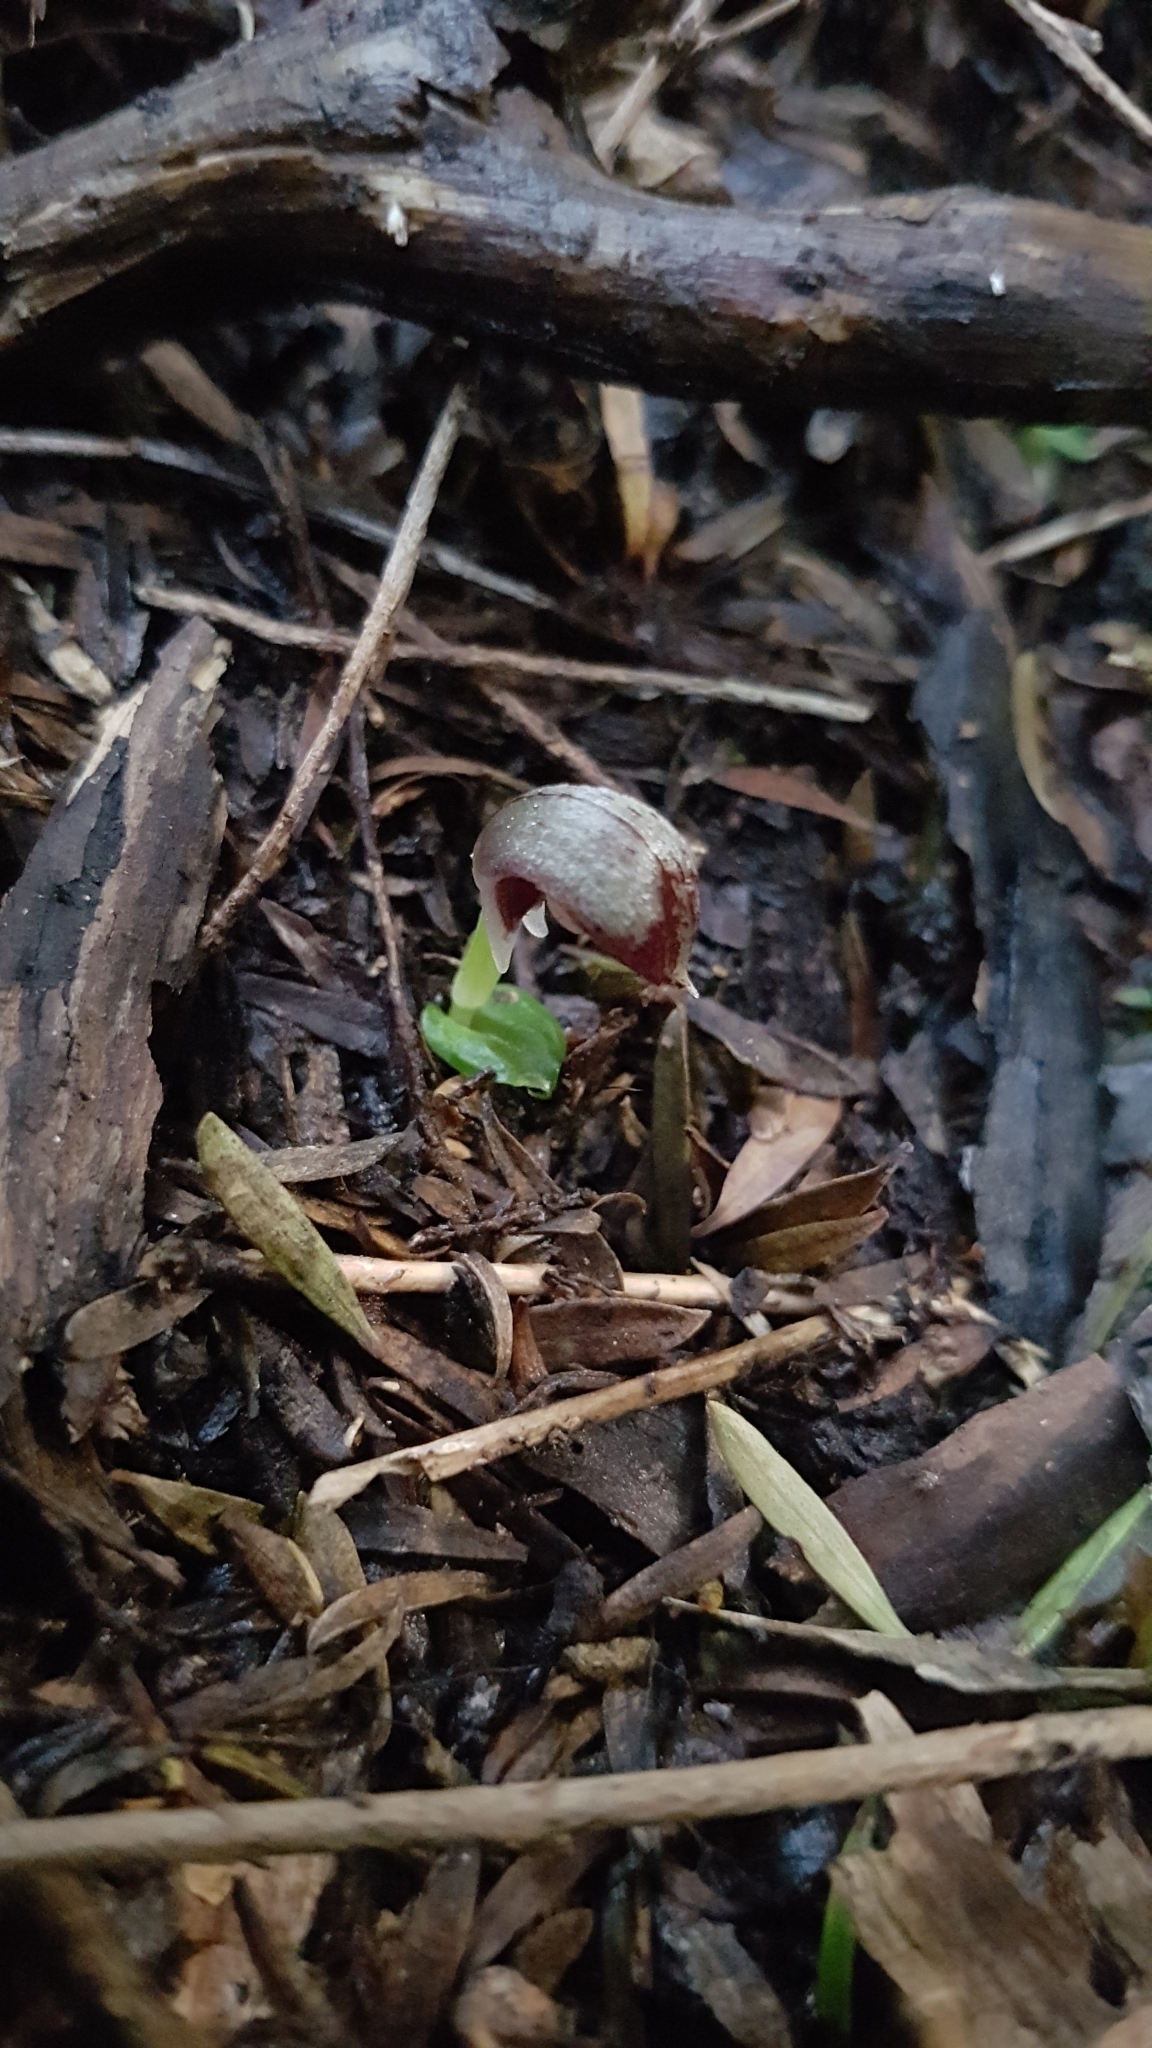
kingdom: Plantae
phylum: Tracheophyta
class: Liliopsida
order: Asparagales
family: Orchidaceae
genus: Corybas
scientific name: Corybas cheesemanii
